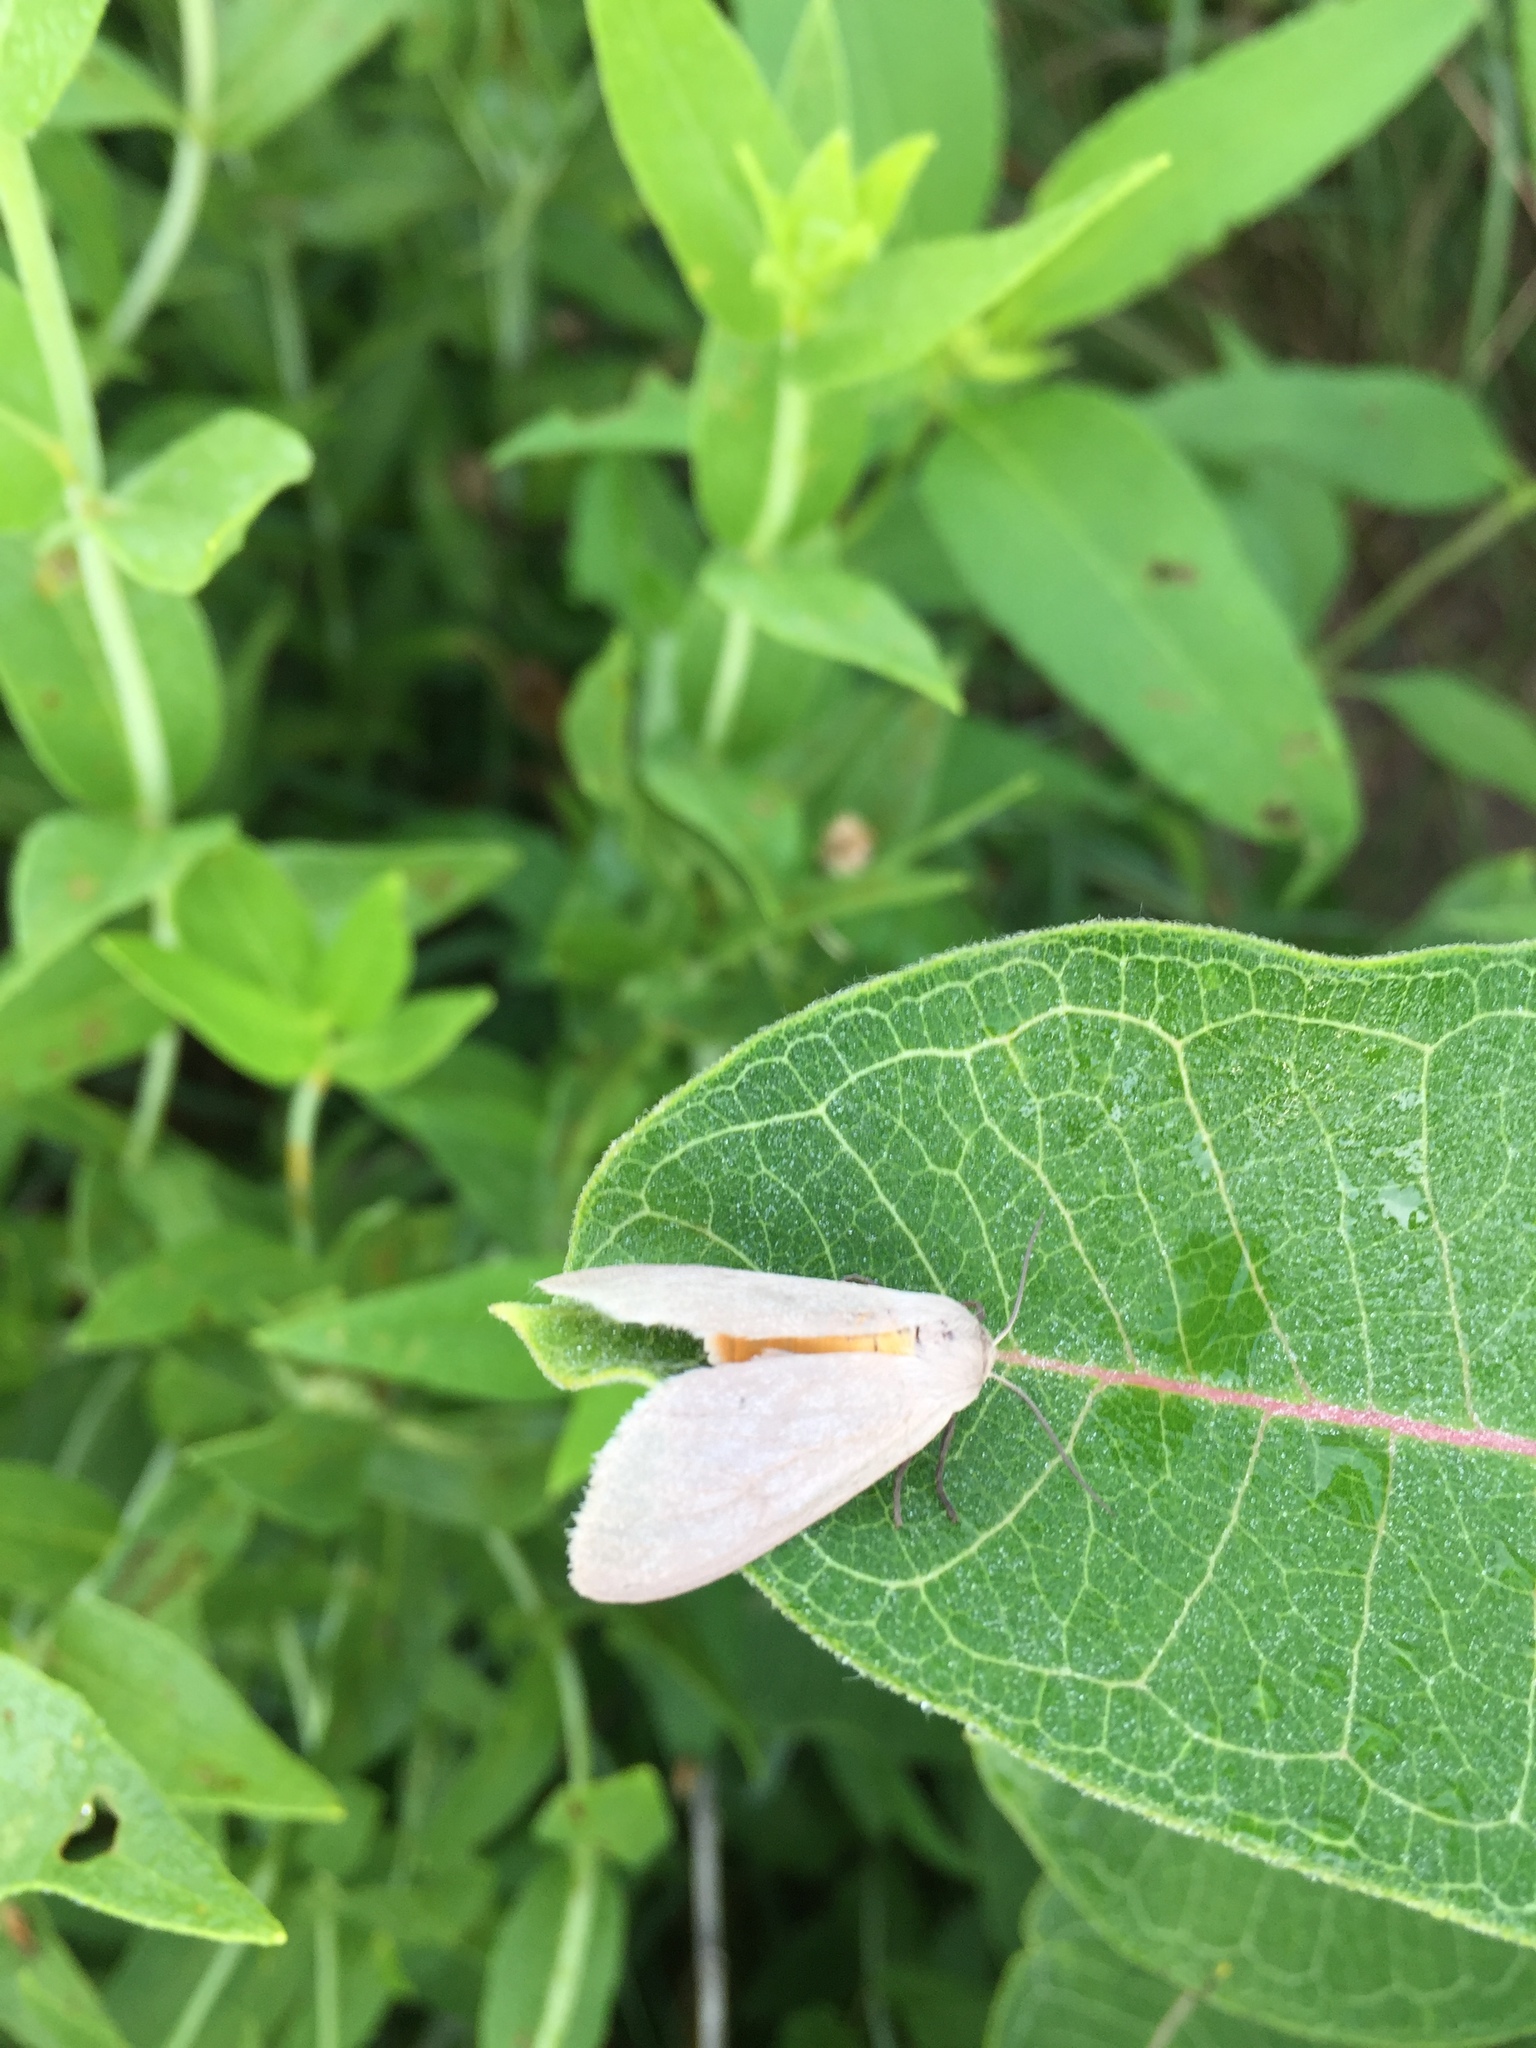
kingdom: Animalia
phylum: Arthropoda
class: Insecta
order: Lepidoptera
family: Erebidae
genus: Euchaetes
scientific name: Euchaetes egle
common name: Milkweed tussock moth
